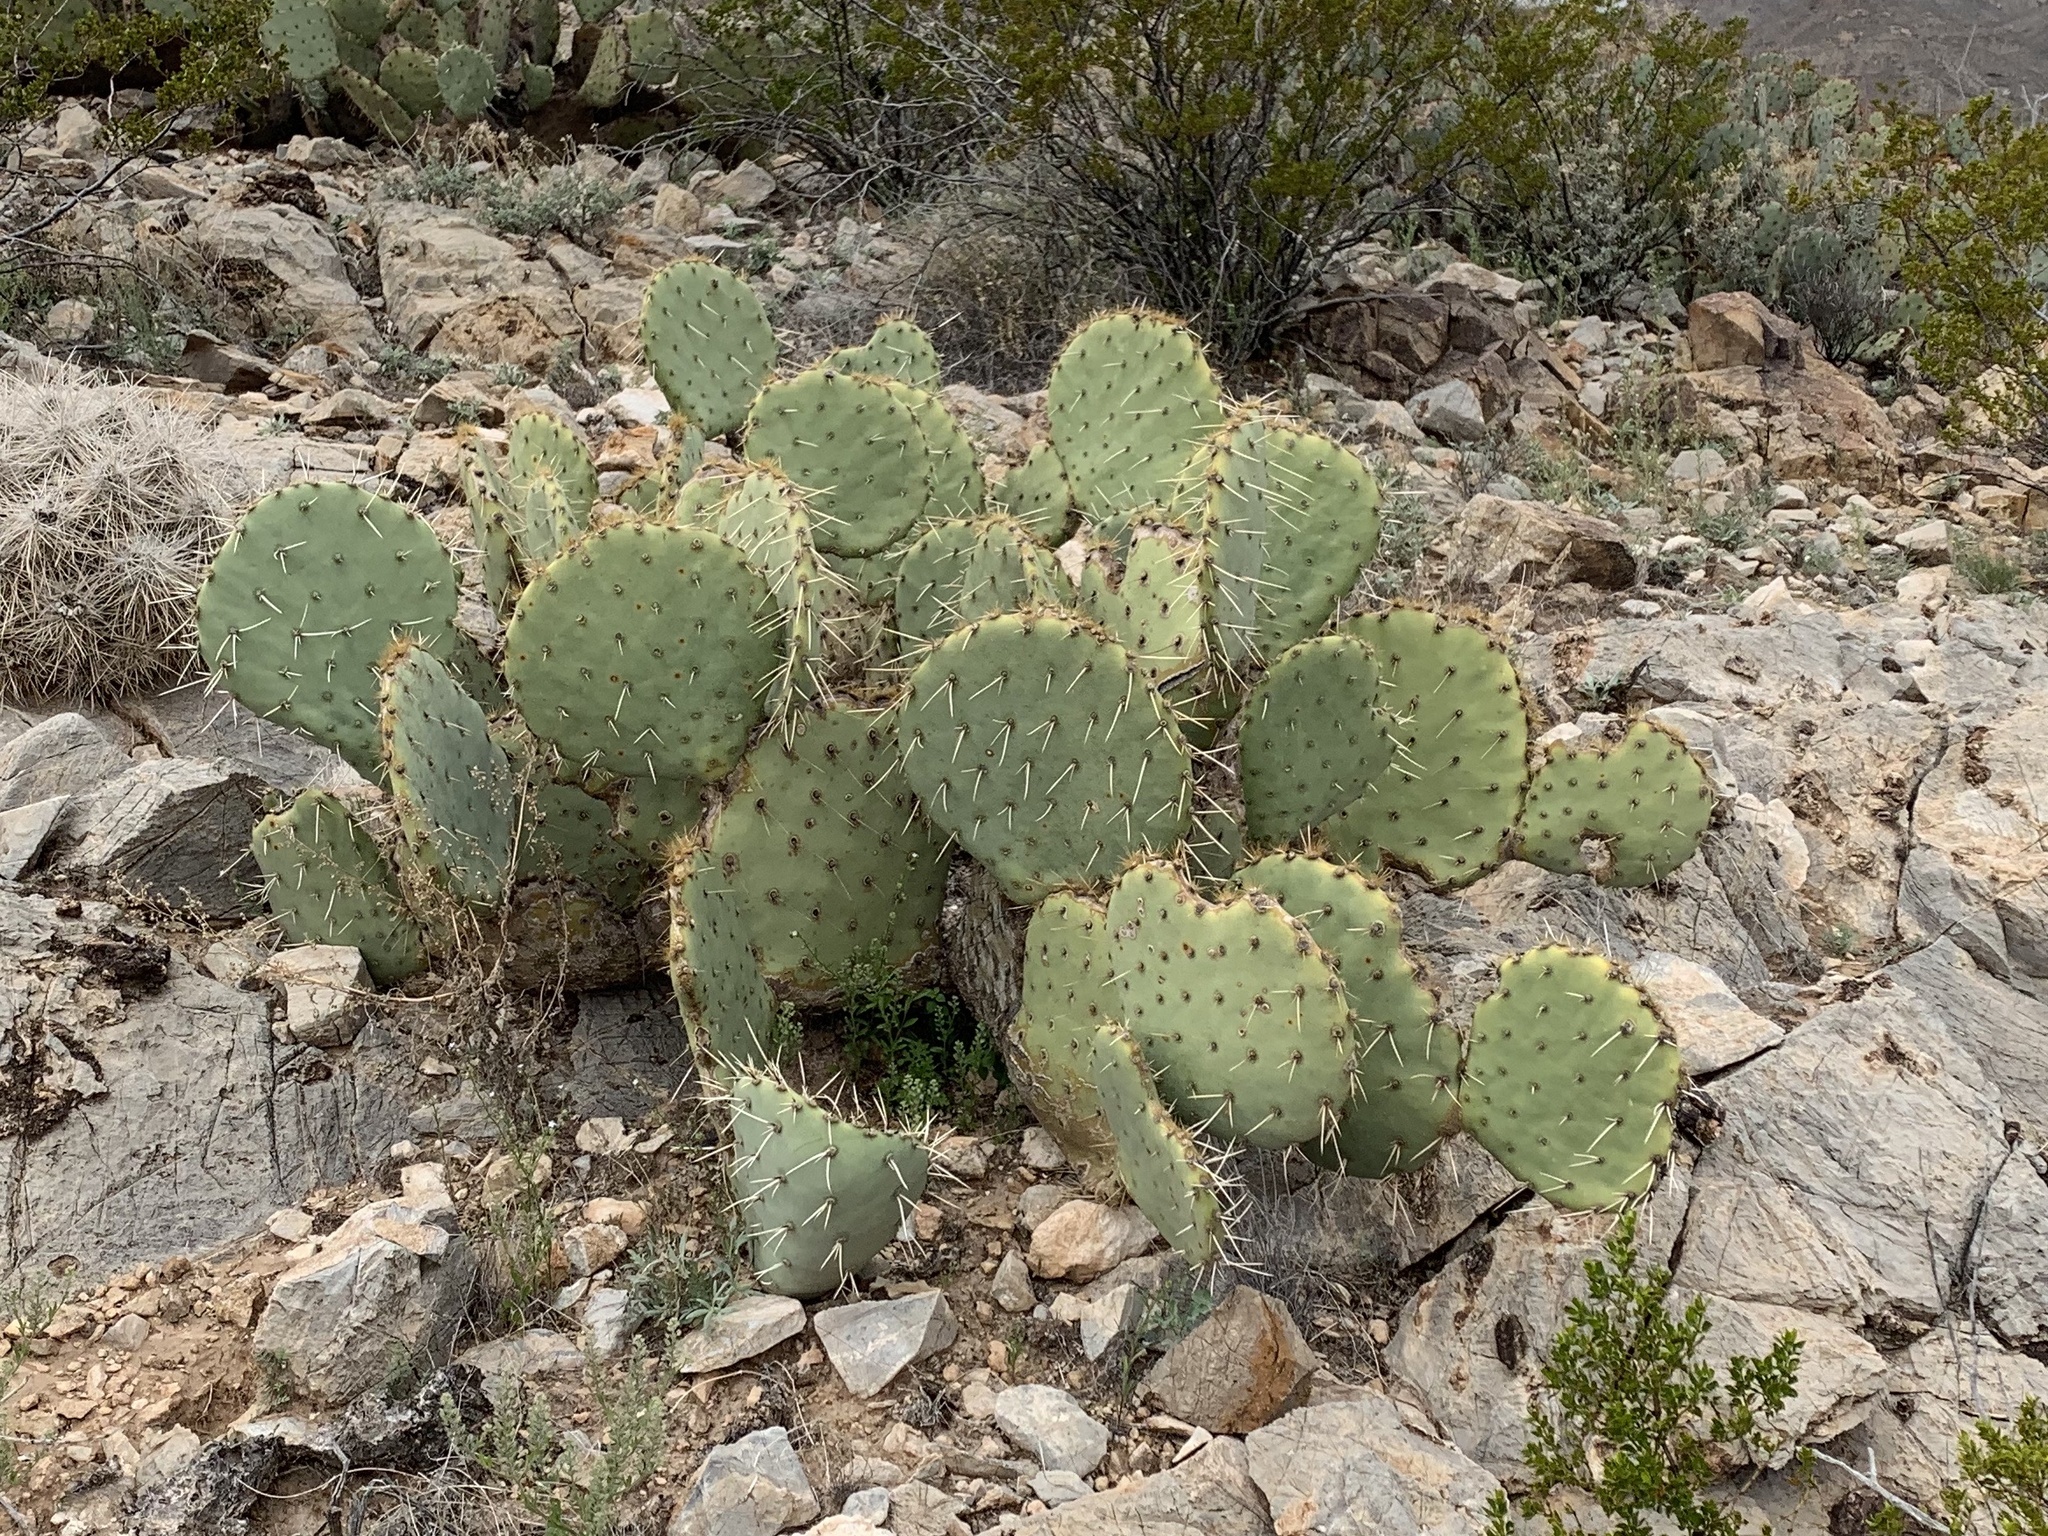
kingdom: Plantae
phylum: Tracheophyta
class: Magnoliopsida
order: Caryophyllales
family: Cactaceae
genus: Opuntia
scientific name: Opuntia engelmannii
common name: Cactus-apple
